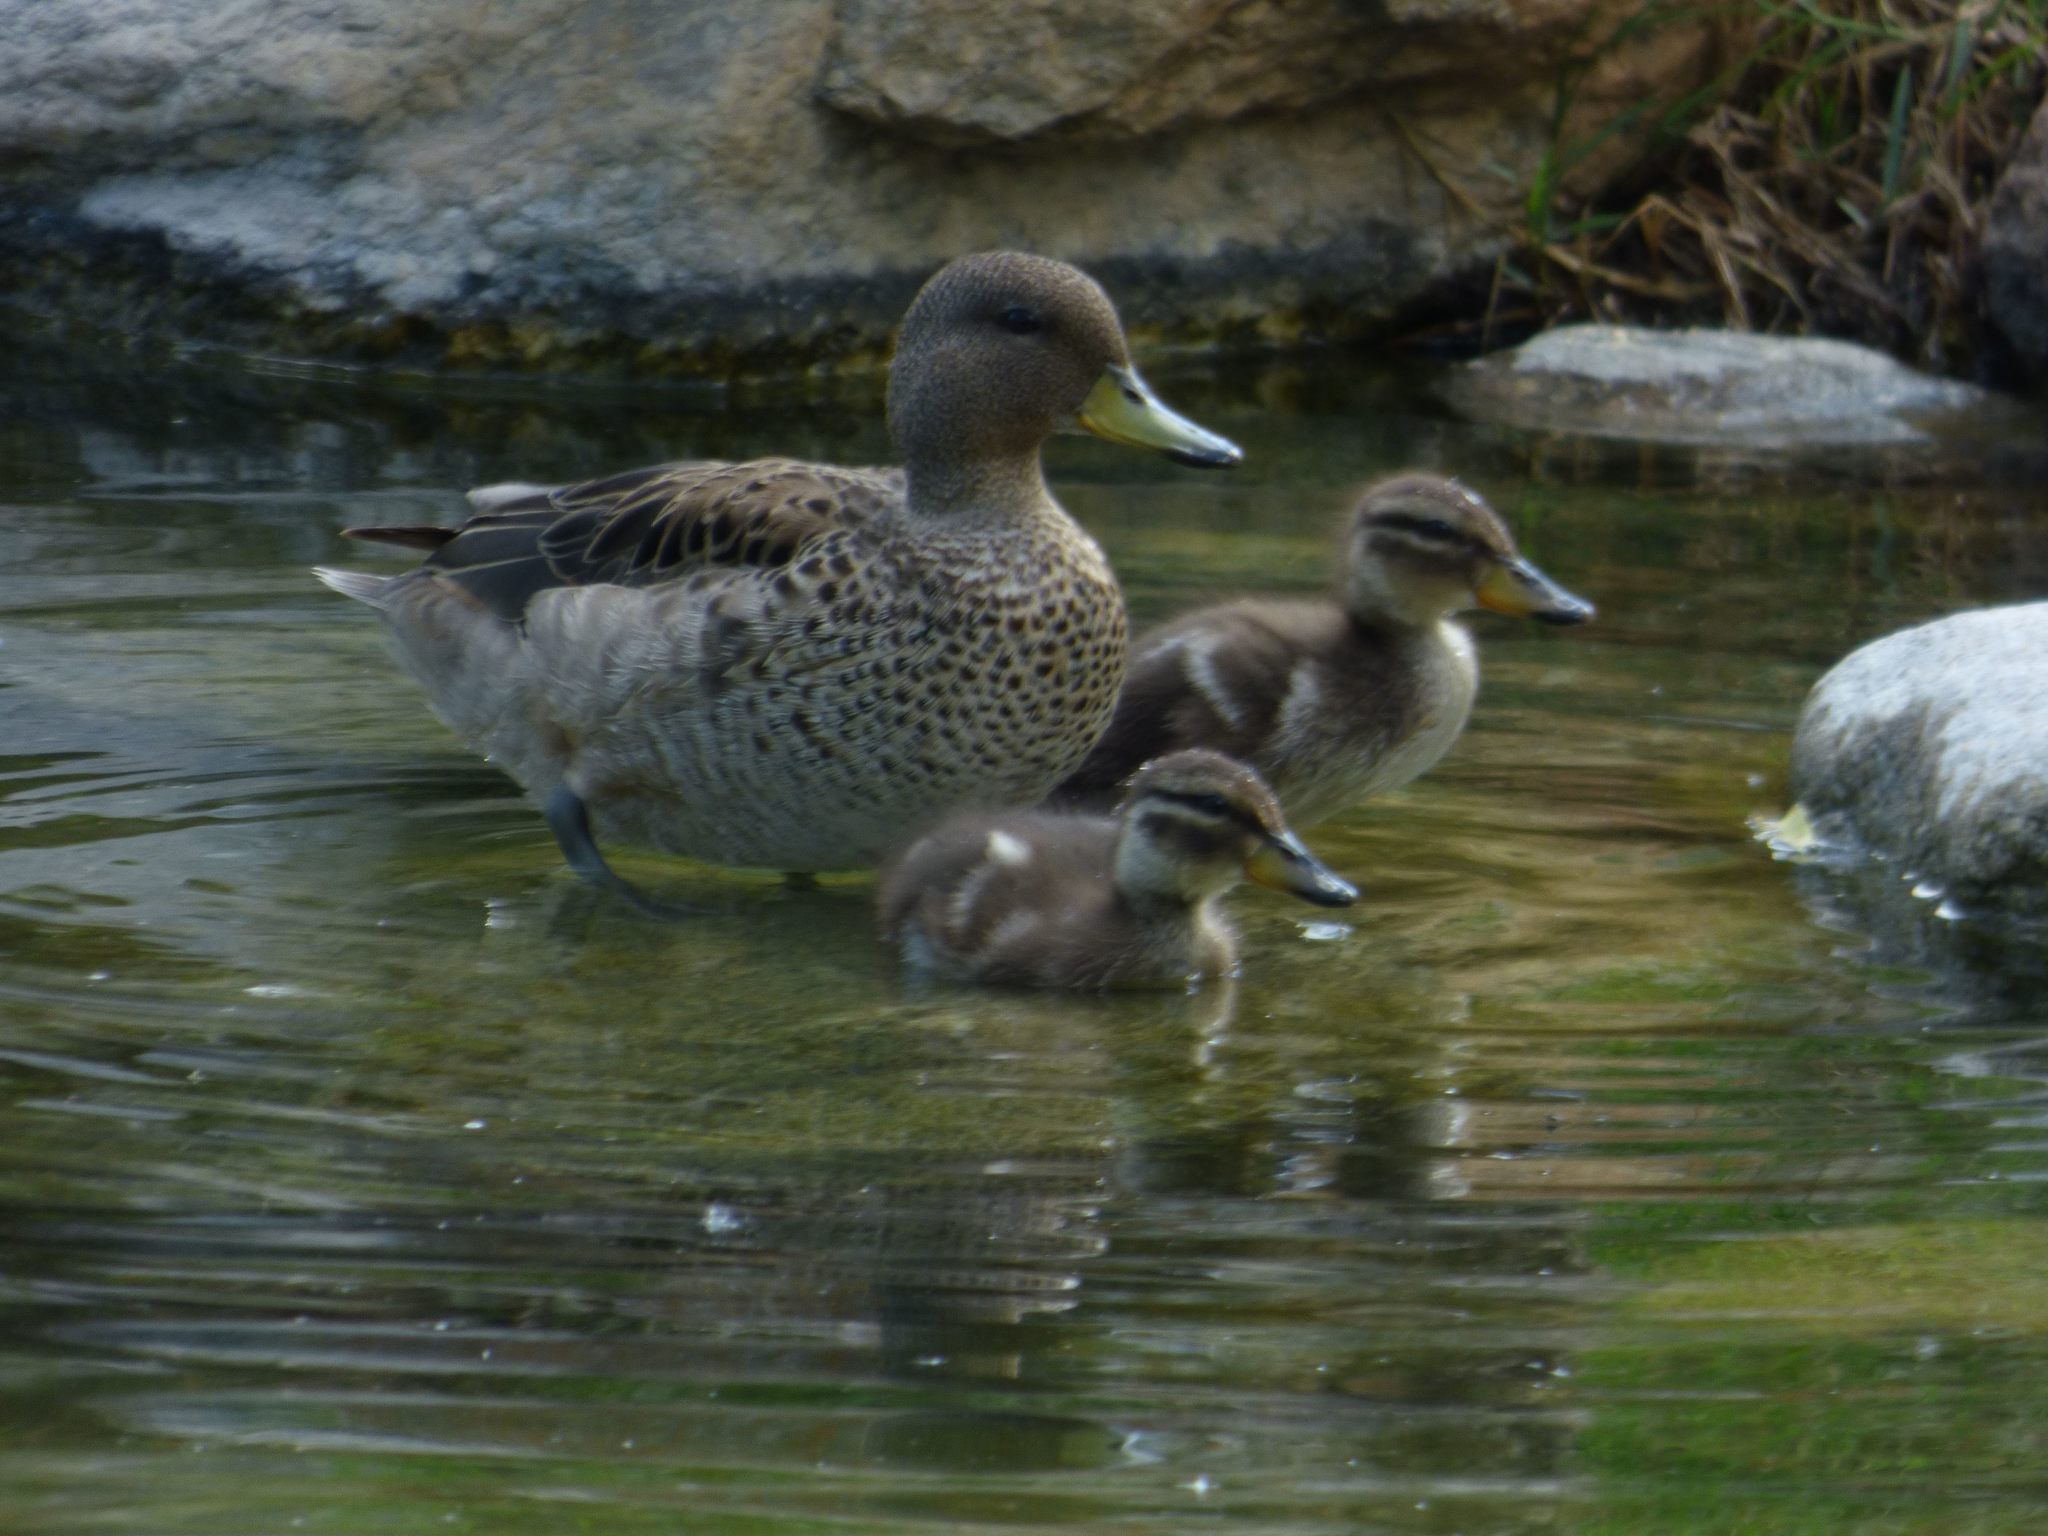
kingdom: Animalia
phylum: Chordata
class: Aves
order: Anseriformes
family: Anatidae
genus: Anas
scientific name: Anas flavirostris
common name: Yellow-billed teal
